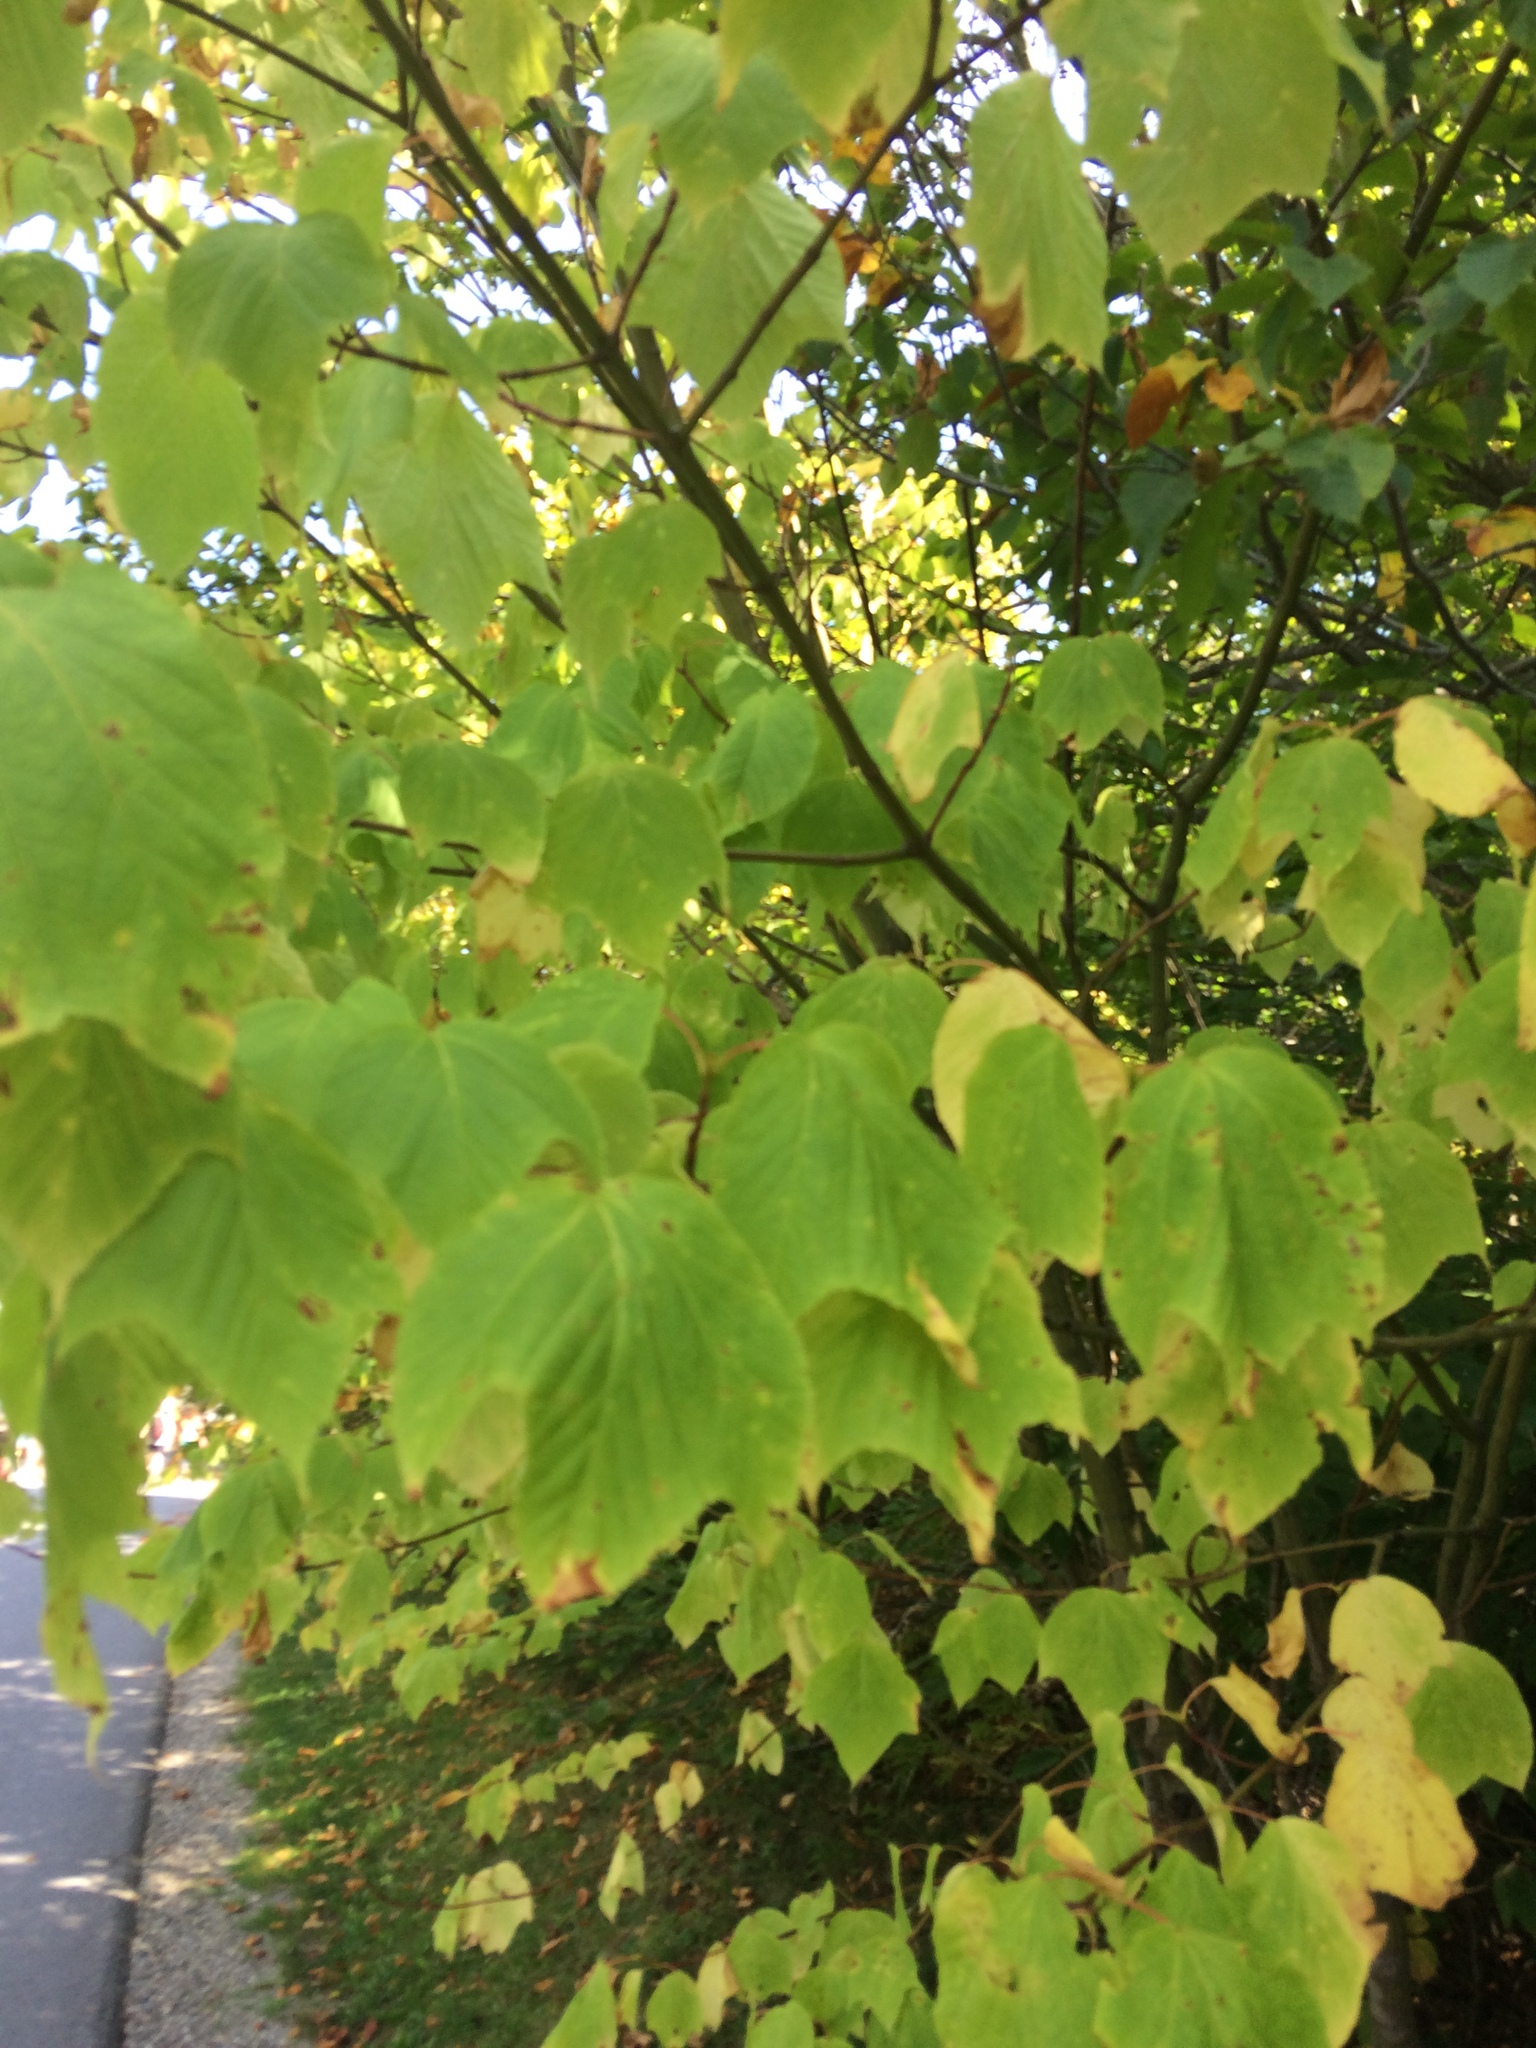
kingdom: Plantae
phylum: Tracheophyta
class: Magnoliopsida
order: Sapindales
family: Sapindaceae
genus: Acer
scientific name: Acer pensylvanicum
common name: Moosewood
